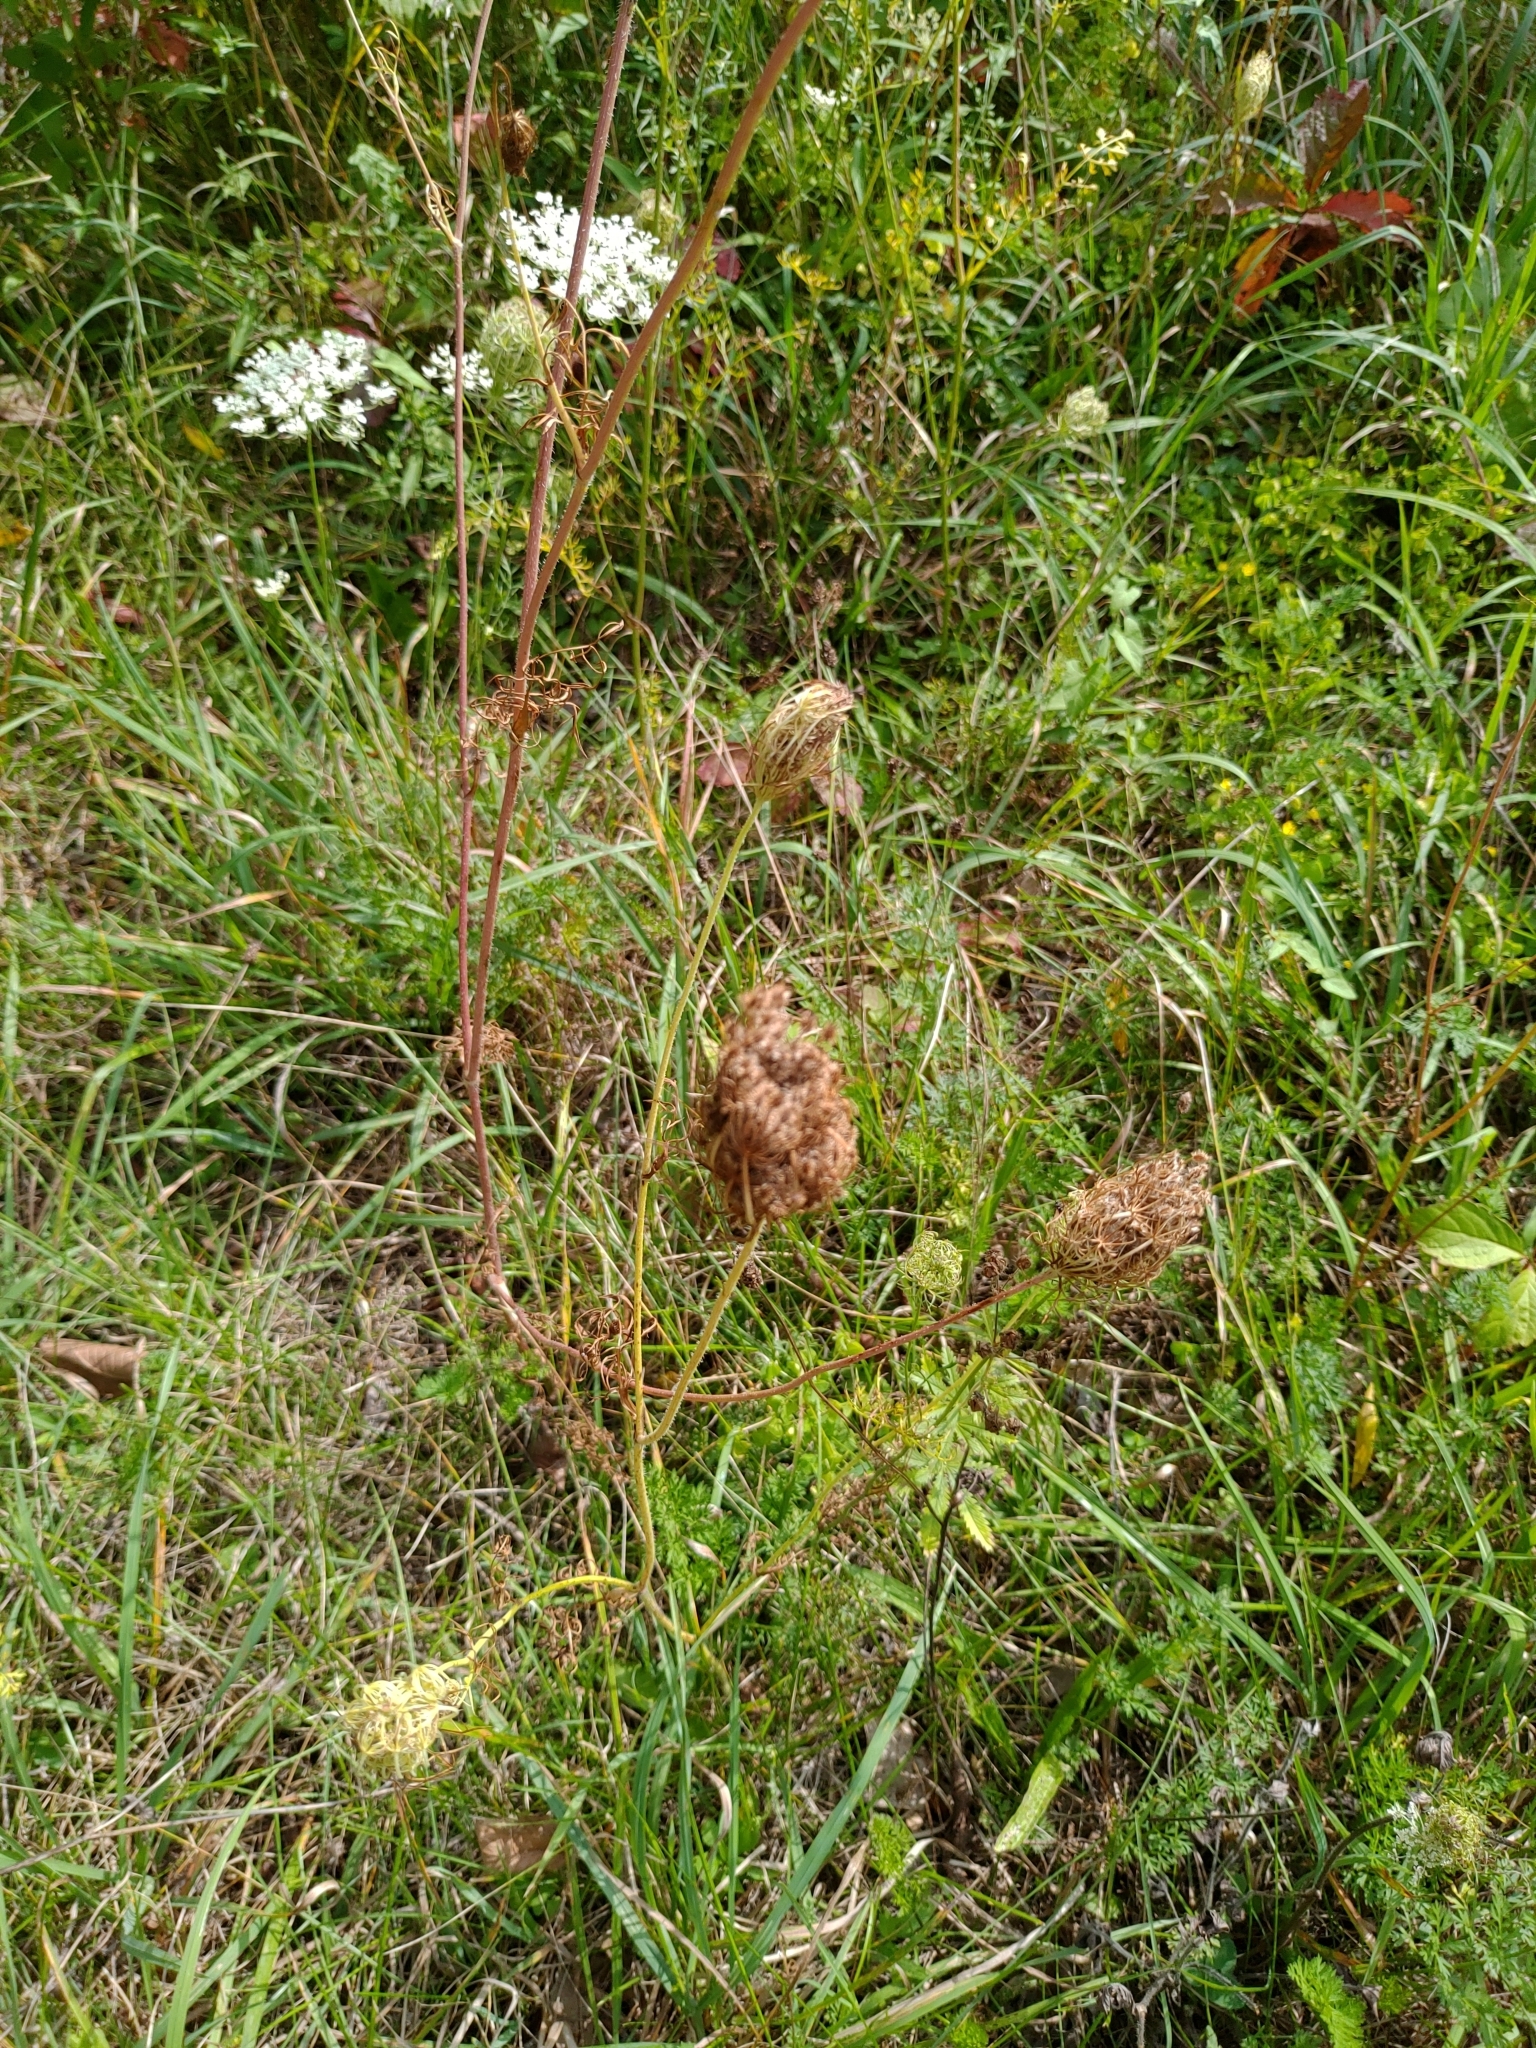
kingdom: Plantae
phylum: Tracheophyta
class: Magnoliopsida
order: Apiales
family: Apiaceae
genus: Daucus
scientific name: Daucus carota
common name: Wild carrot
